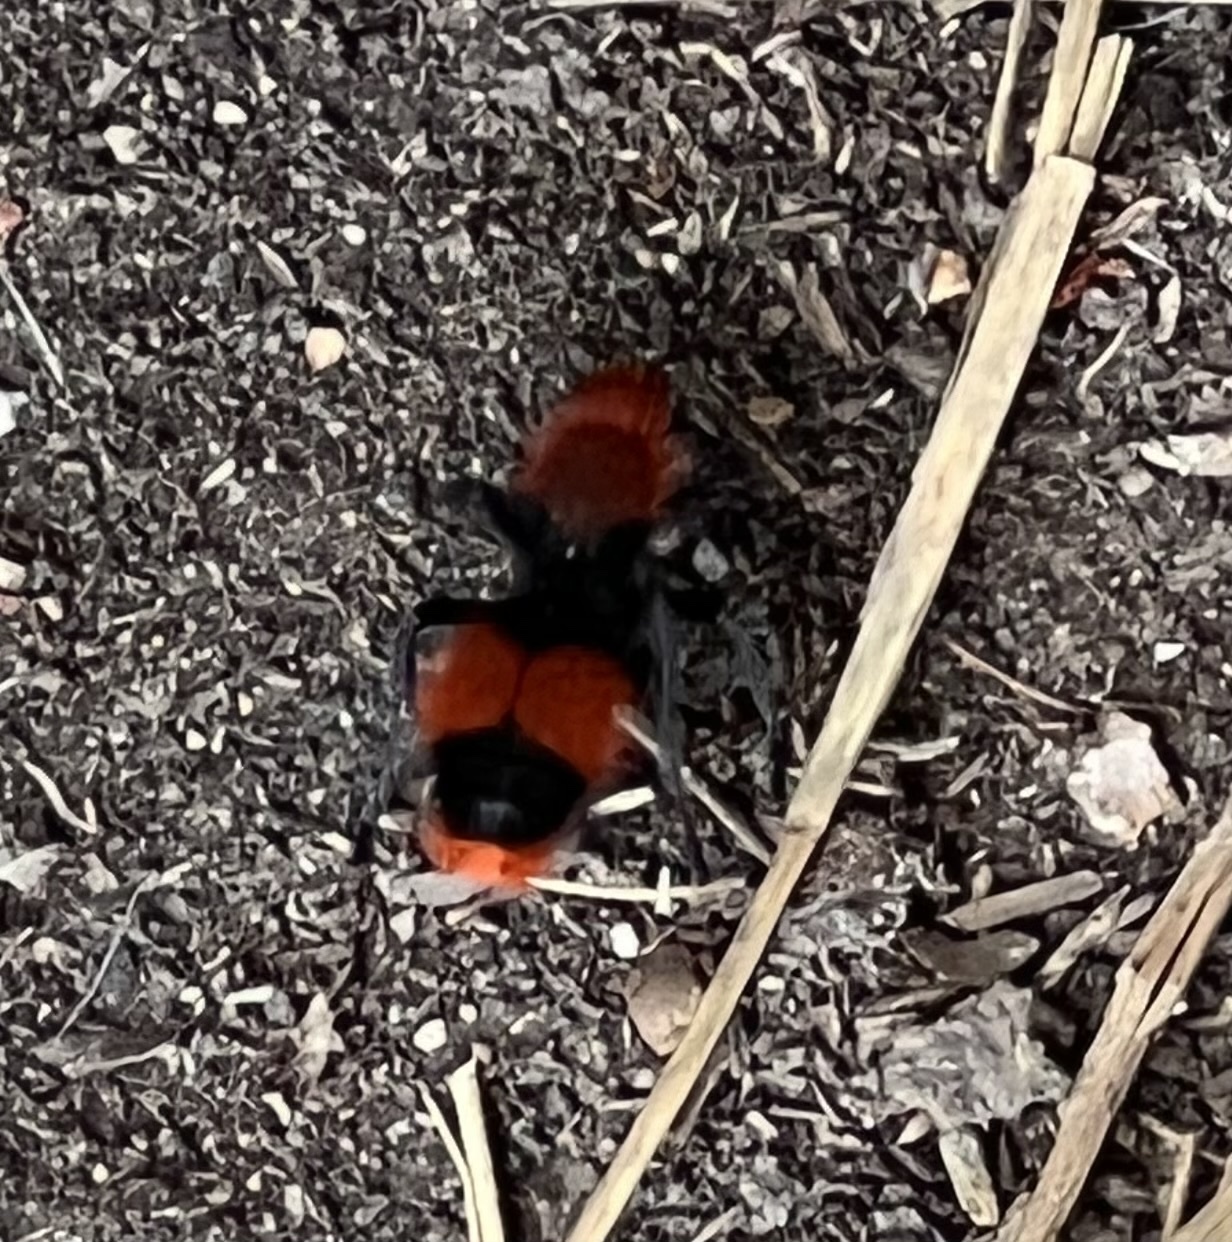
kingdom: Animalia
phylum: Arthropoda
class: Insecta
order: Hymenoptera
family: Mutillidae
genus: Dasymutilla
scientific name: Dasymutilla occidentalis
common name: Common eastern velvet ant
